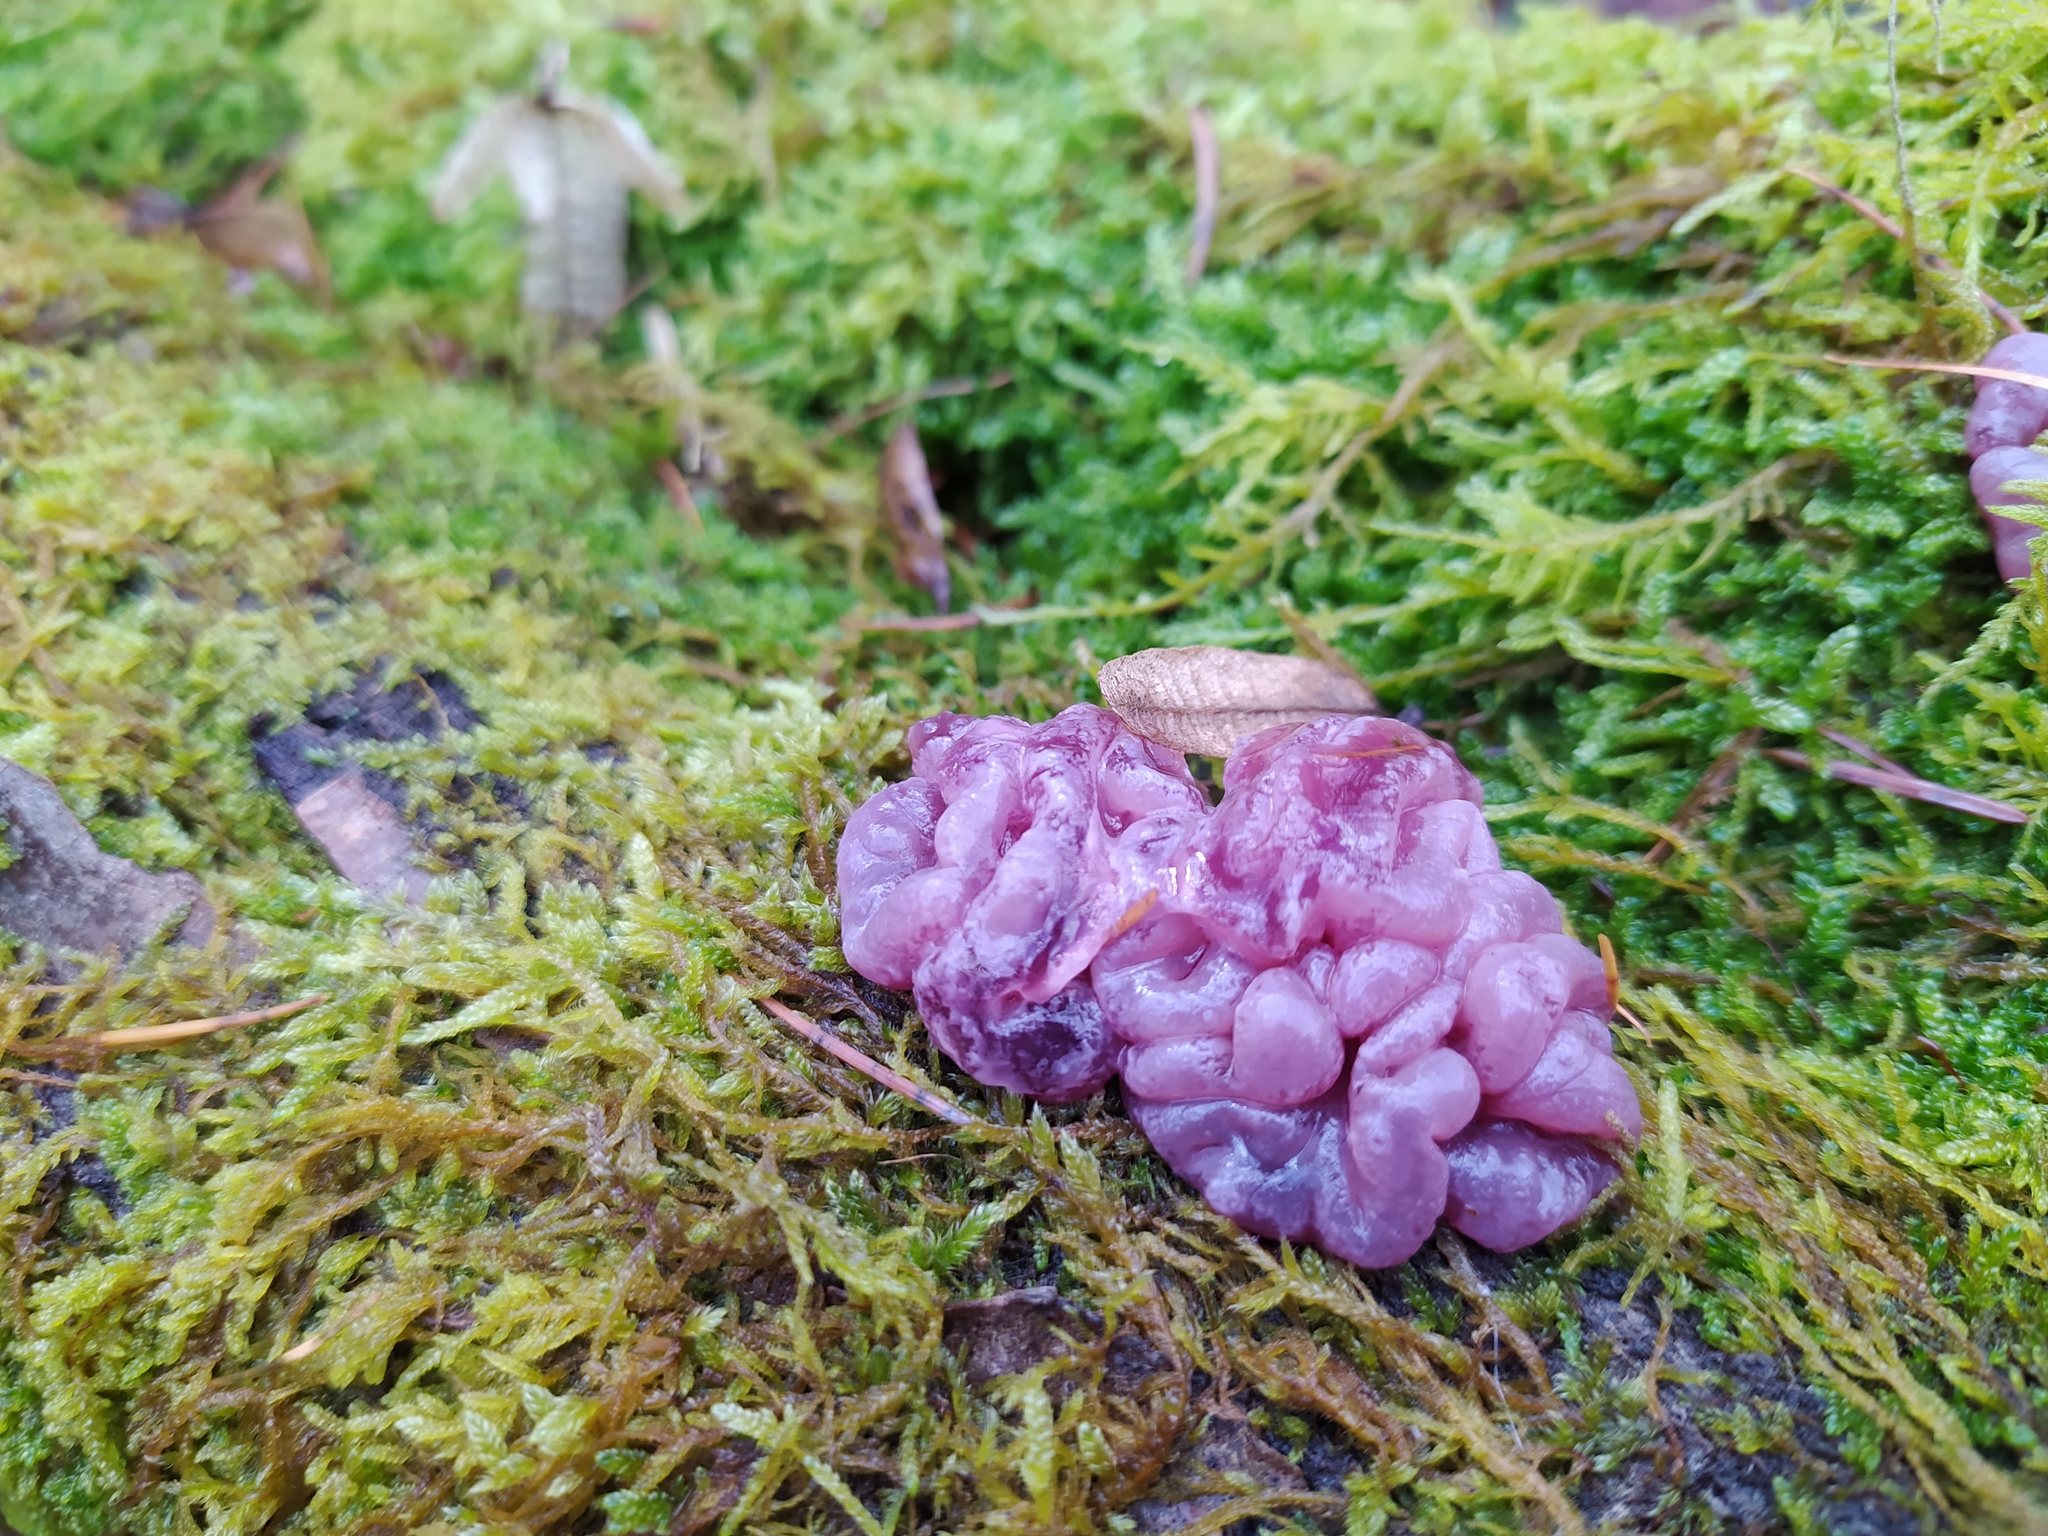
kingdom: Fungi
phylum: Ascomycota
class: Leotiomycetes
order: Helotiales
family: Gelatinodiscaceae
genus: Ascocoryne
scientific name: Ascocoryne sarcoides
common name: Purple jellydisc
